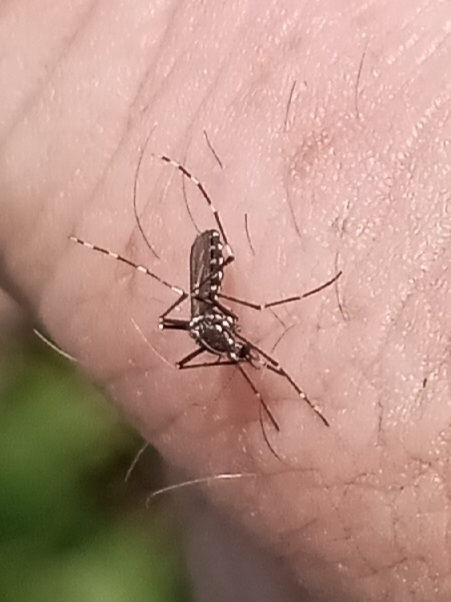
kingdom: Animalia
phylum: Arthropoda
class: Insecta
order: Diptera
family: Culicidae
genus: Aedes
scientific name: Aedes albopictus
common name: Tiger mosquito
